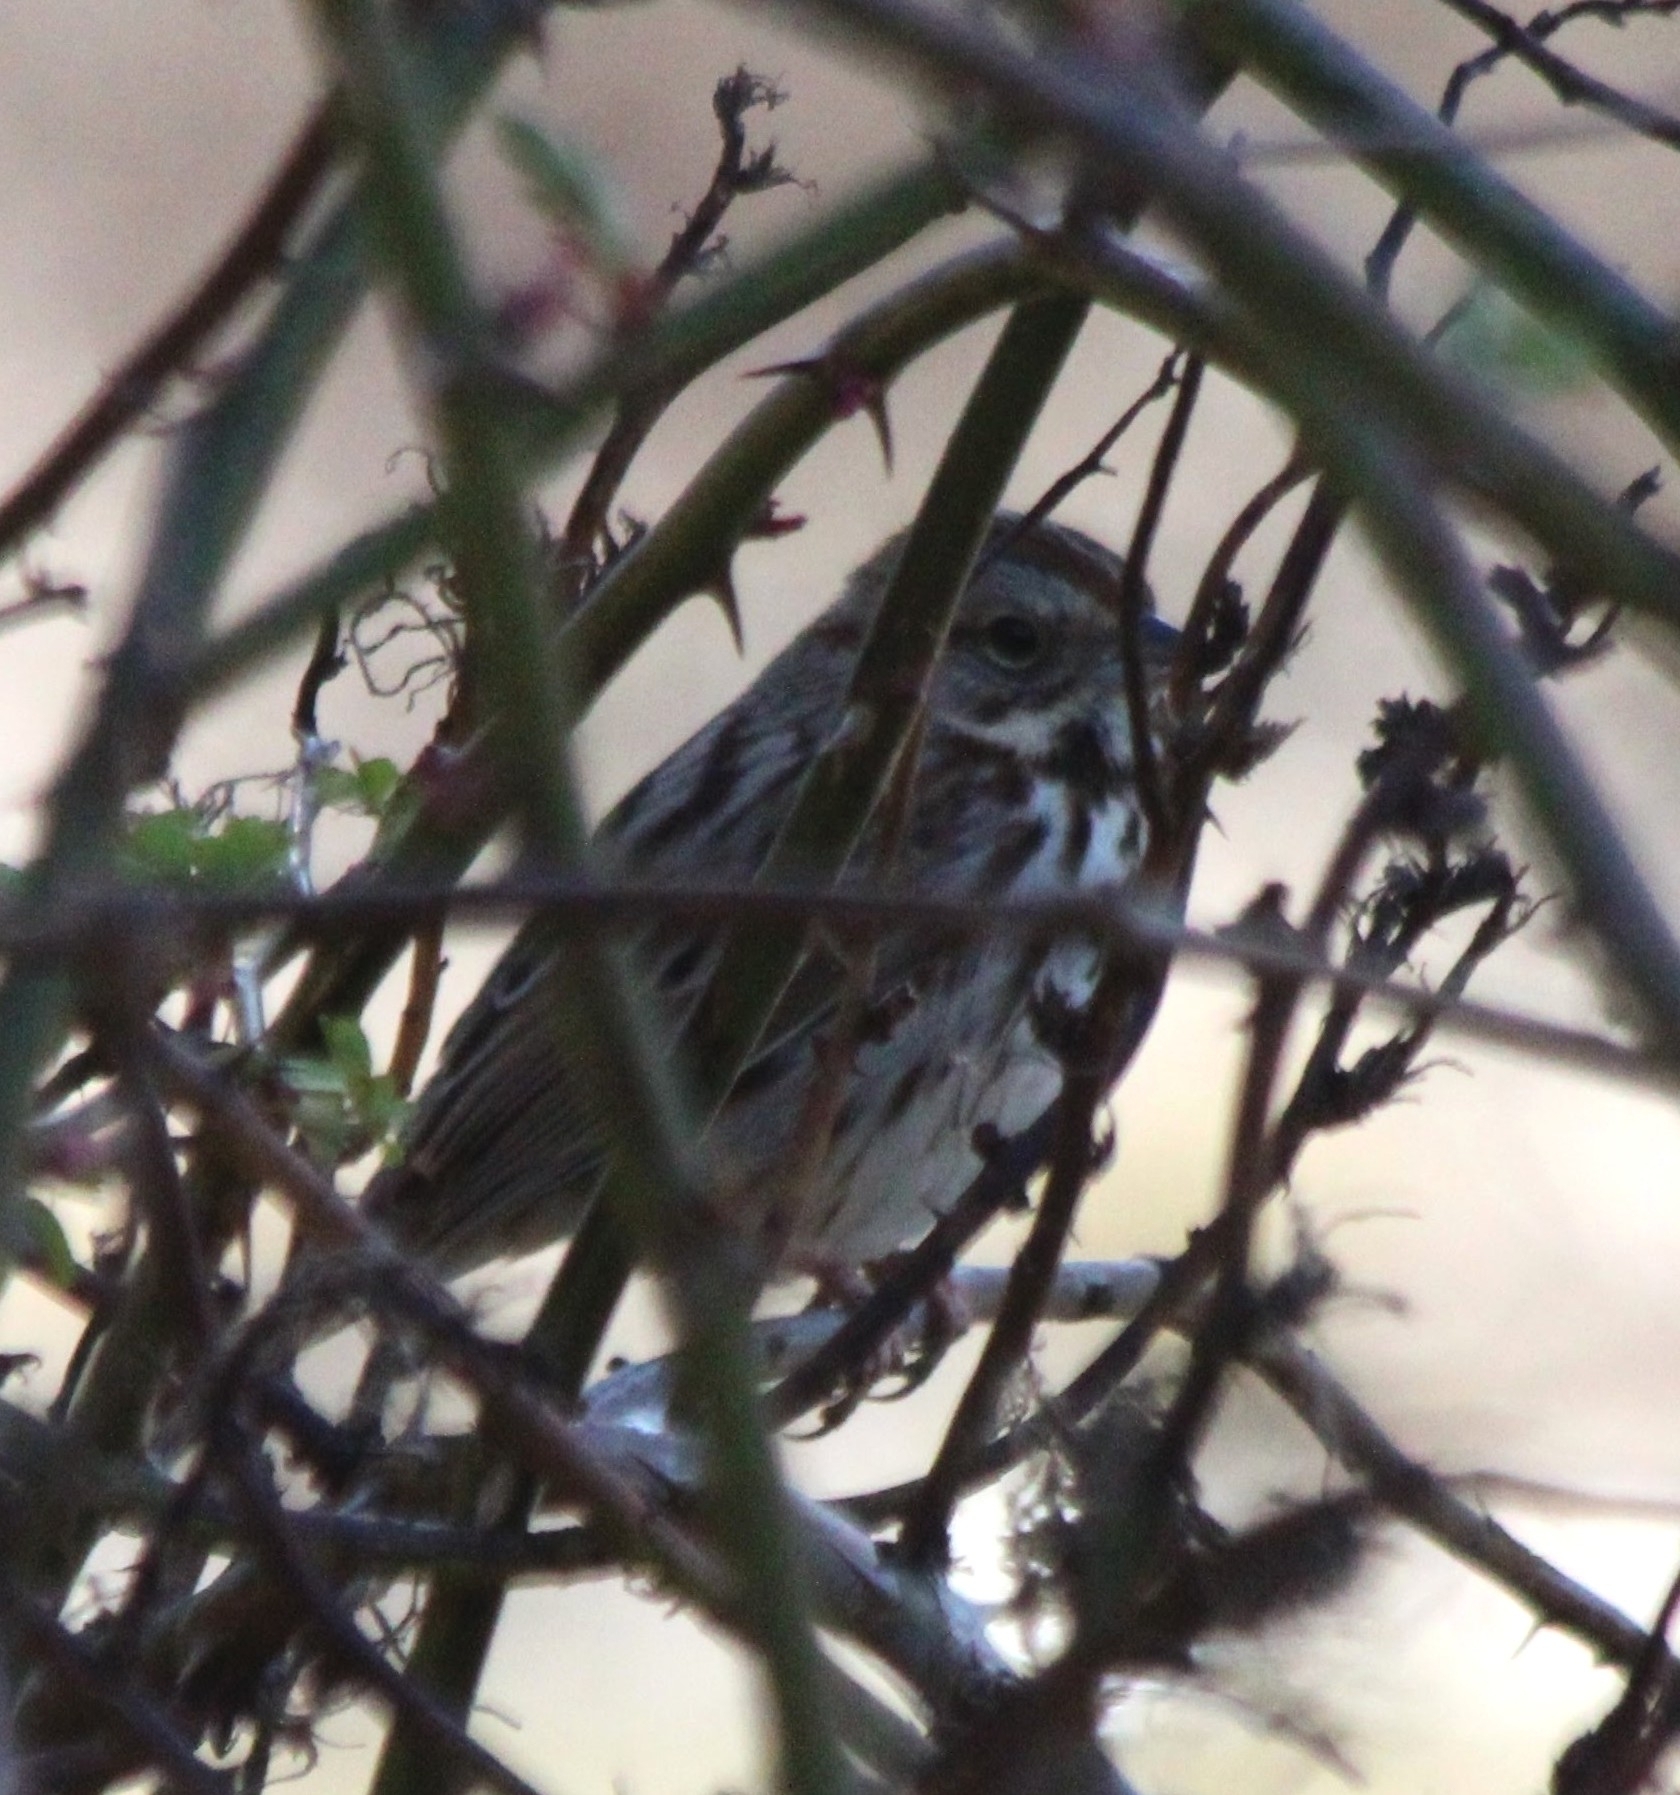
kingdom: Animalia
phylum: Chordata
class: Aves
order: Passeriformes
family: Passerellidae
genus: Melospiza
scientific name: Melospiza melodia
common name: Song sparrow
